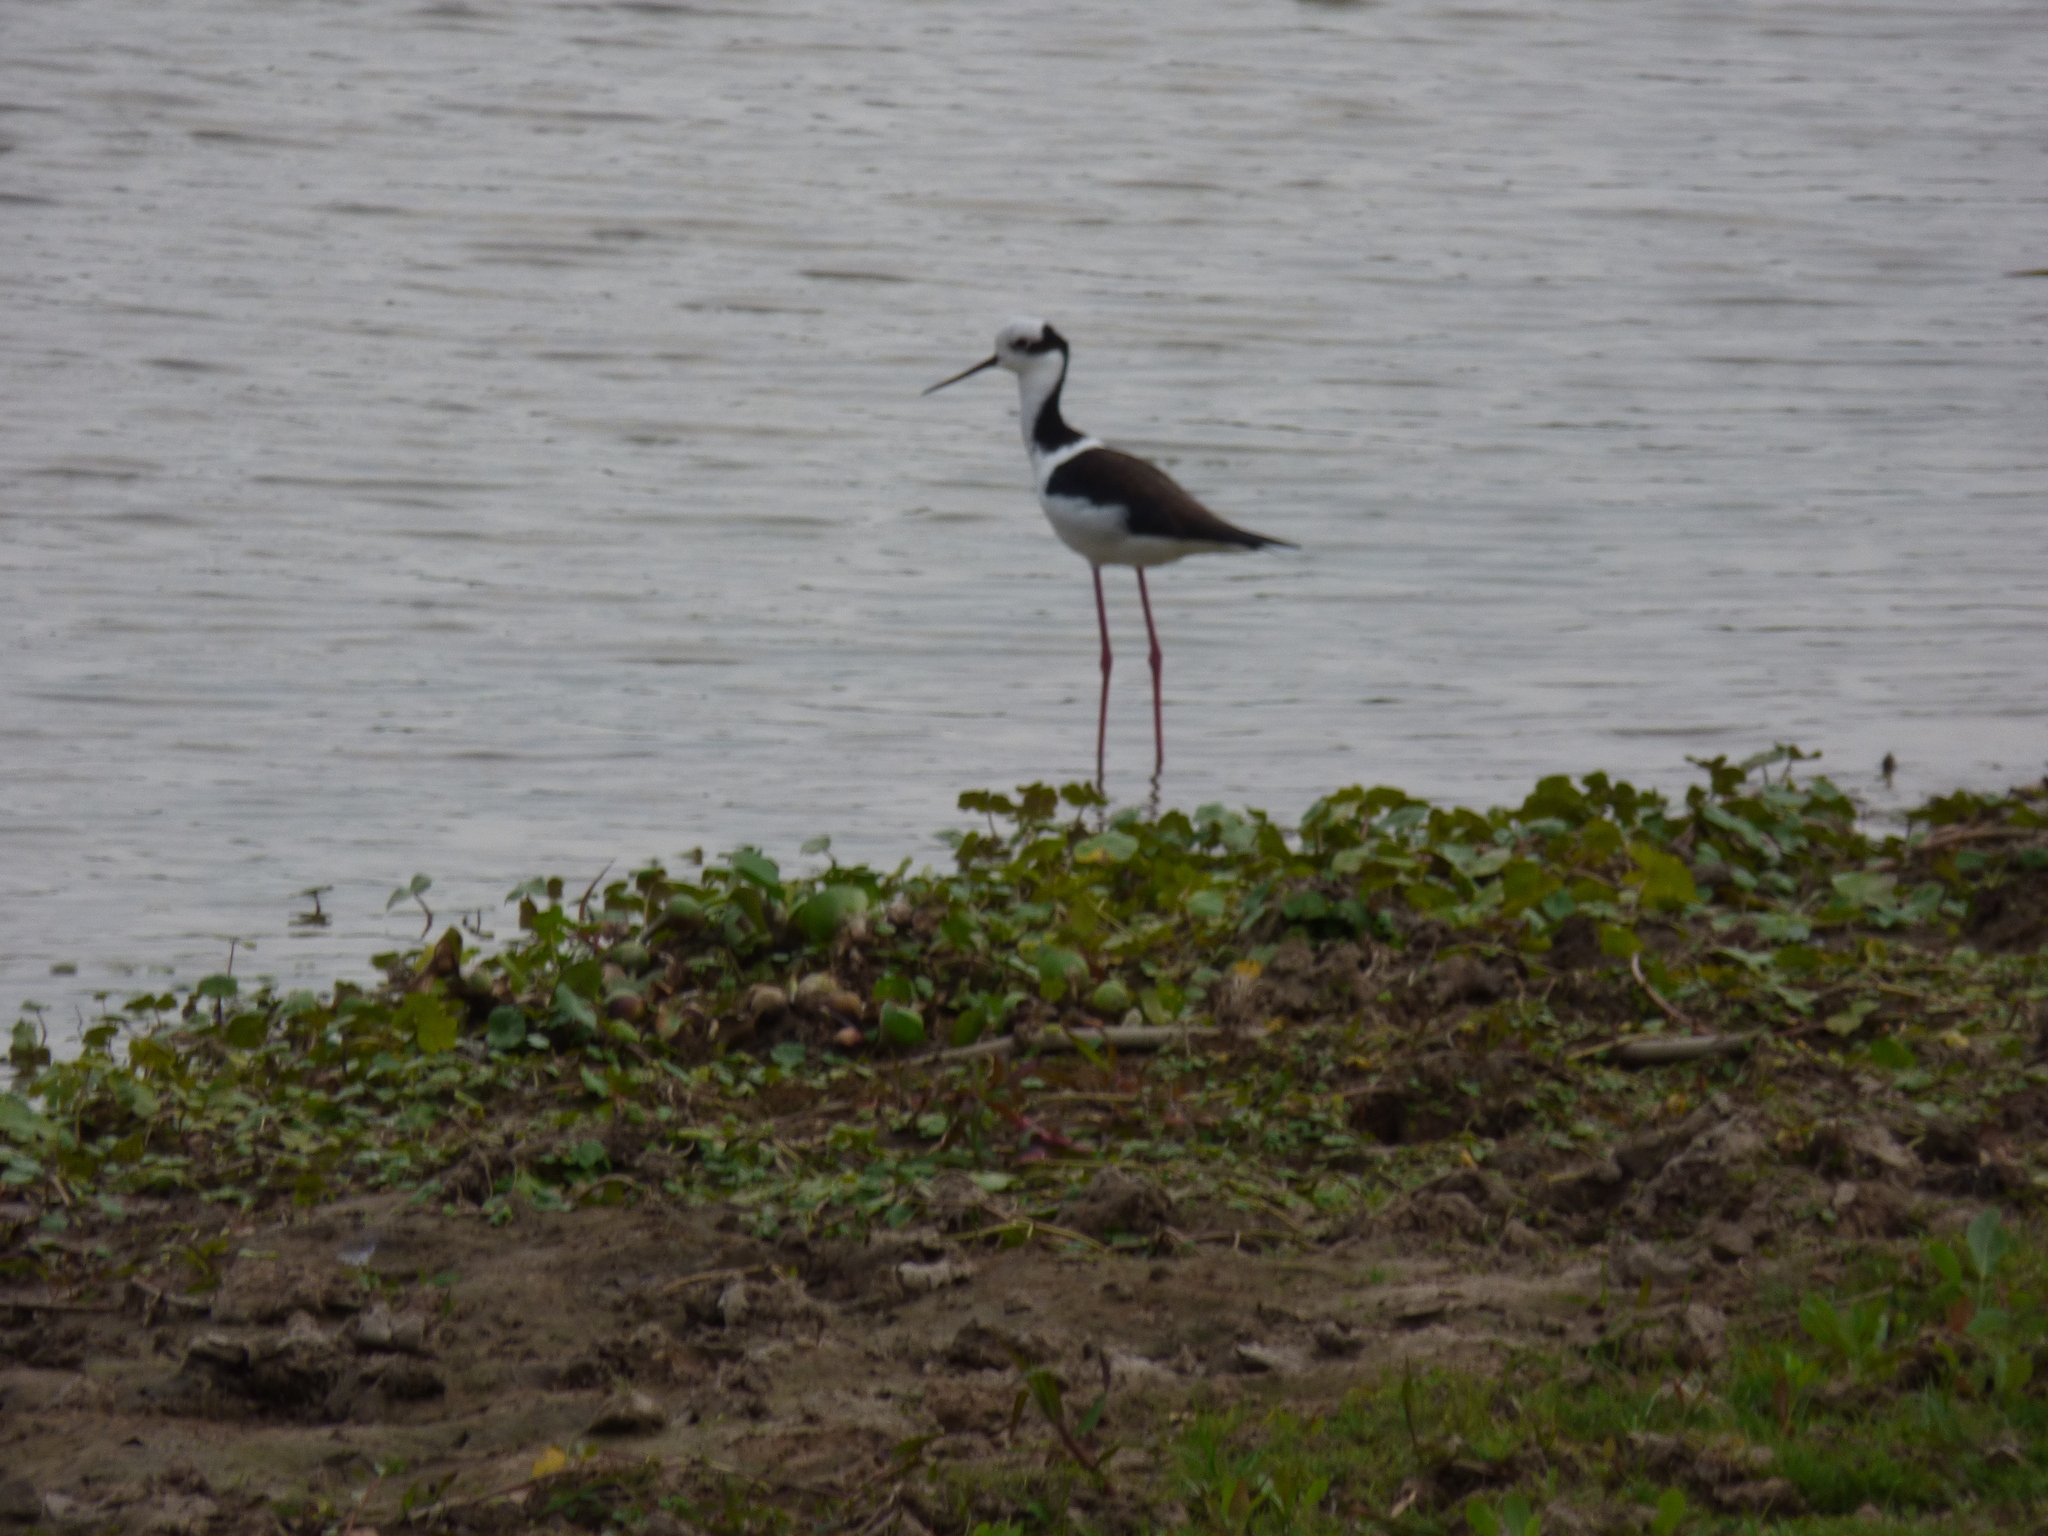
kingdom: Animalia
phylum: Chordata
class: Aves
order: Charadriiformes
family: Recurvirostridae
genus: Himantopus
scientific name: Himantopus mexicanus
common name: Black-necked stilt
